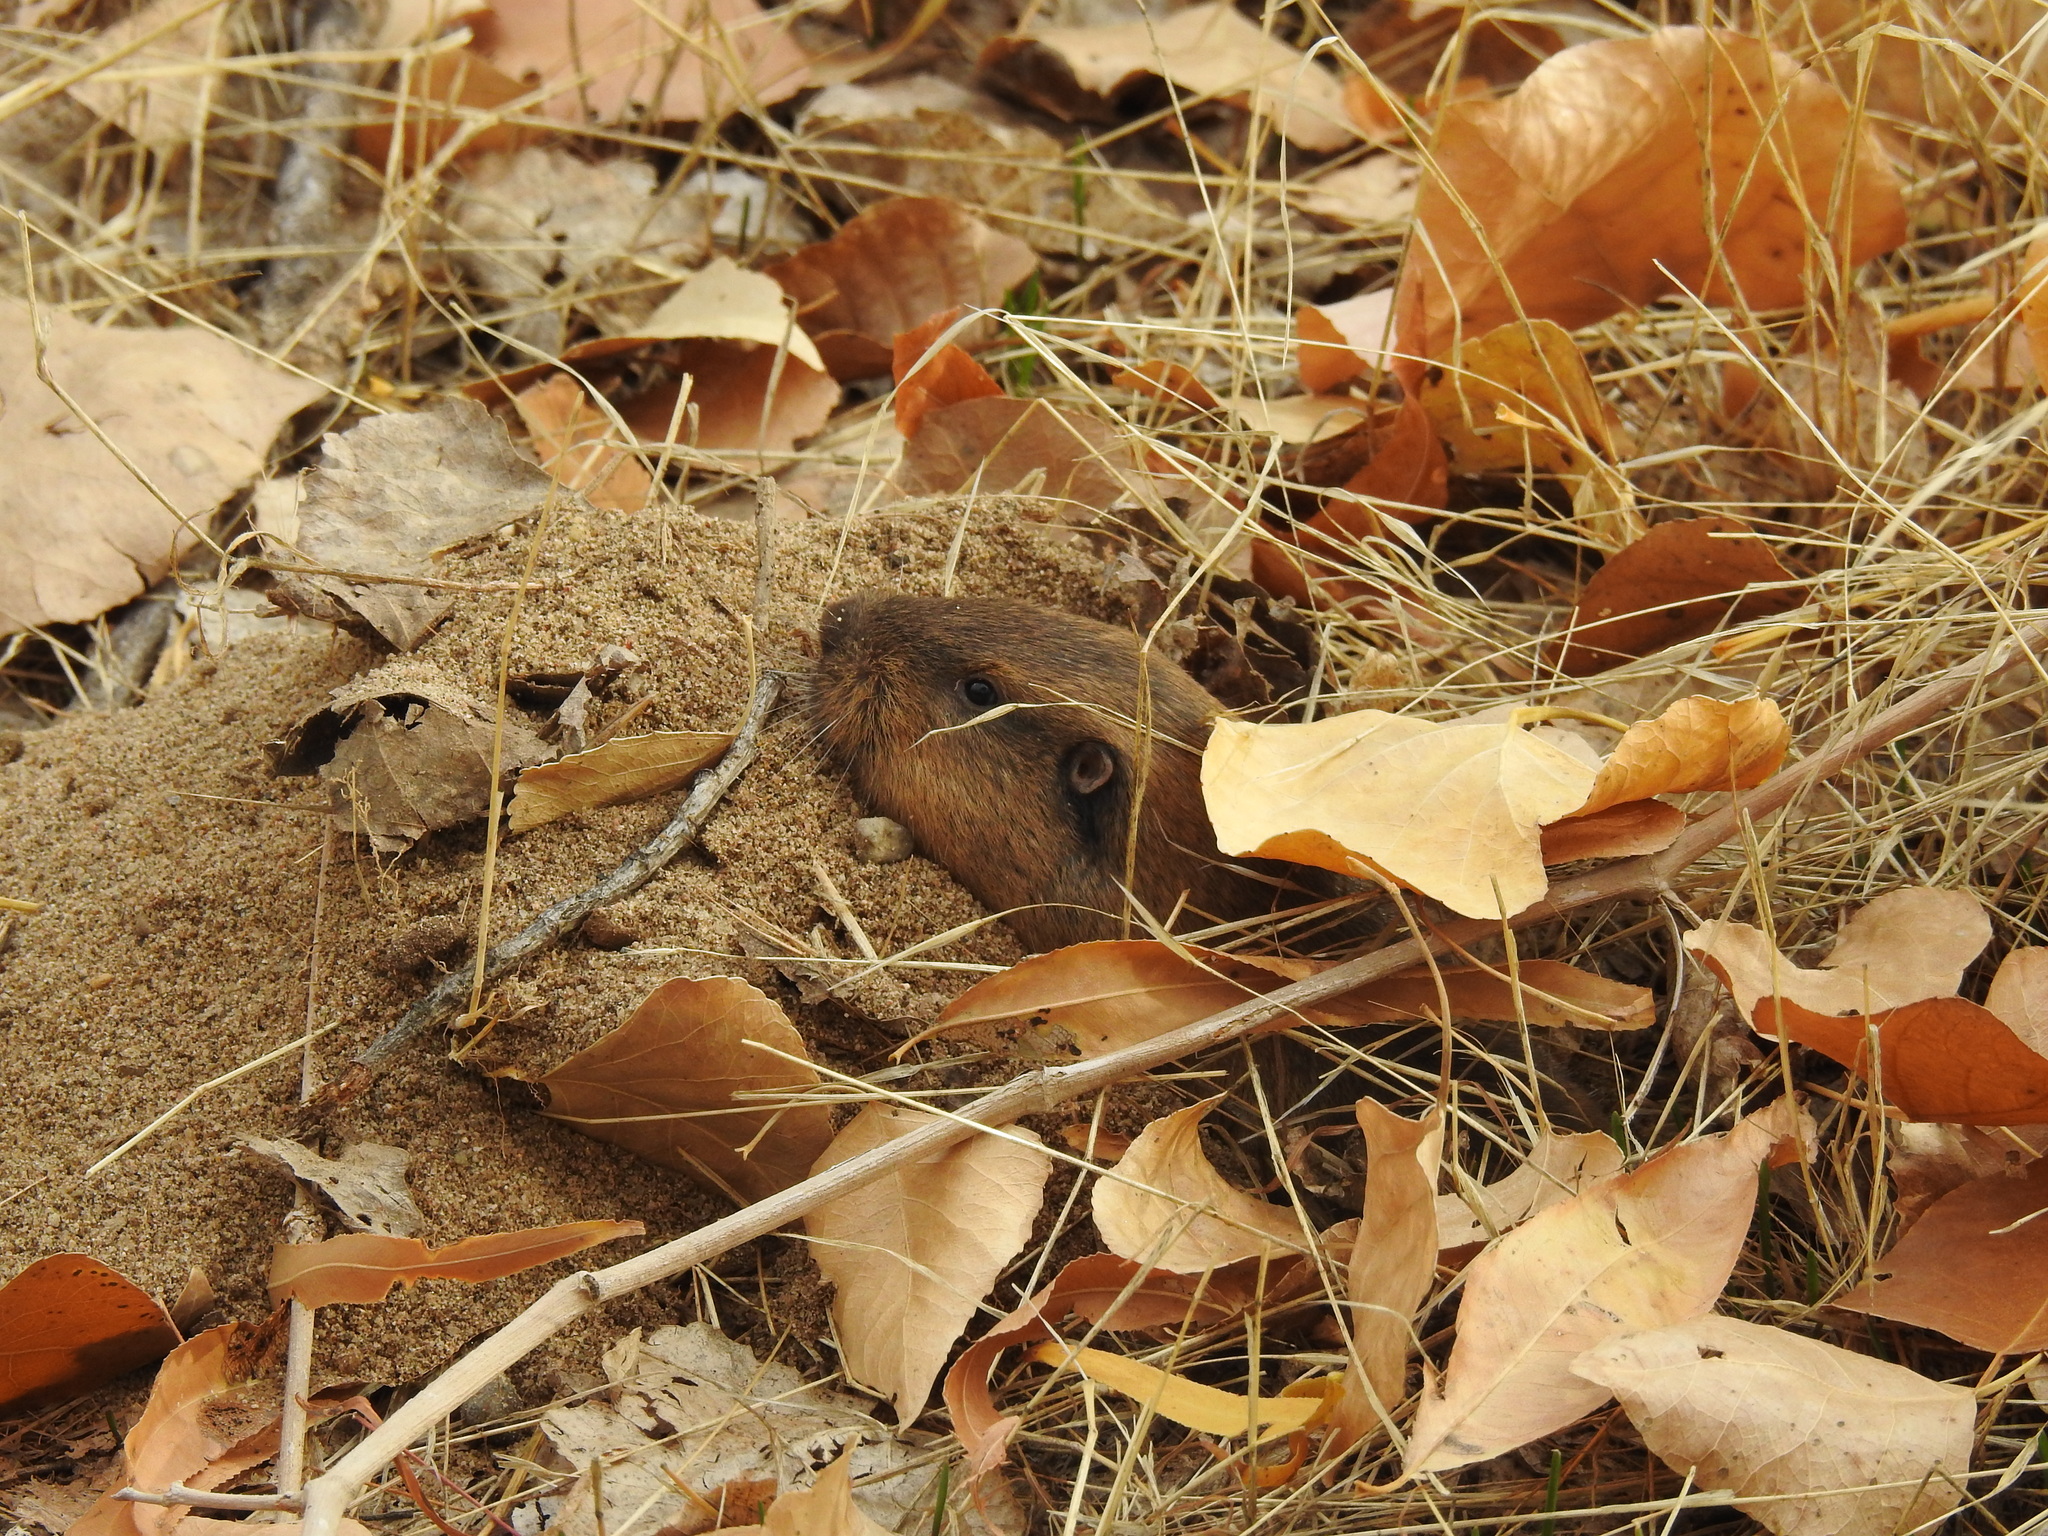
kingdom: Animalia
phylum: Chordata
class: Mammalia
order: Rodentia
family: Geomyidae
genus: Thomomys
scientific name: Thomomys bottae
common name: Botta's pocket gopher
